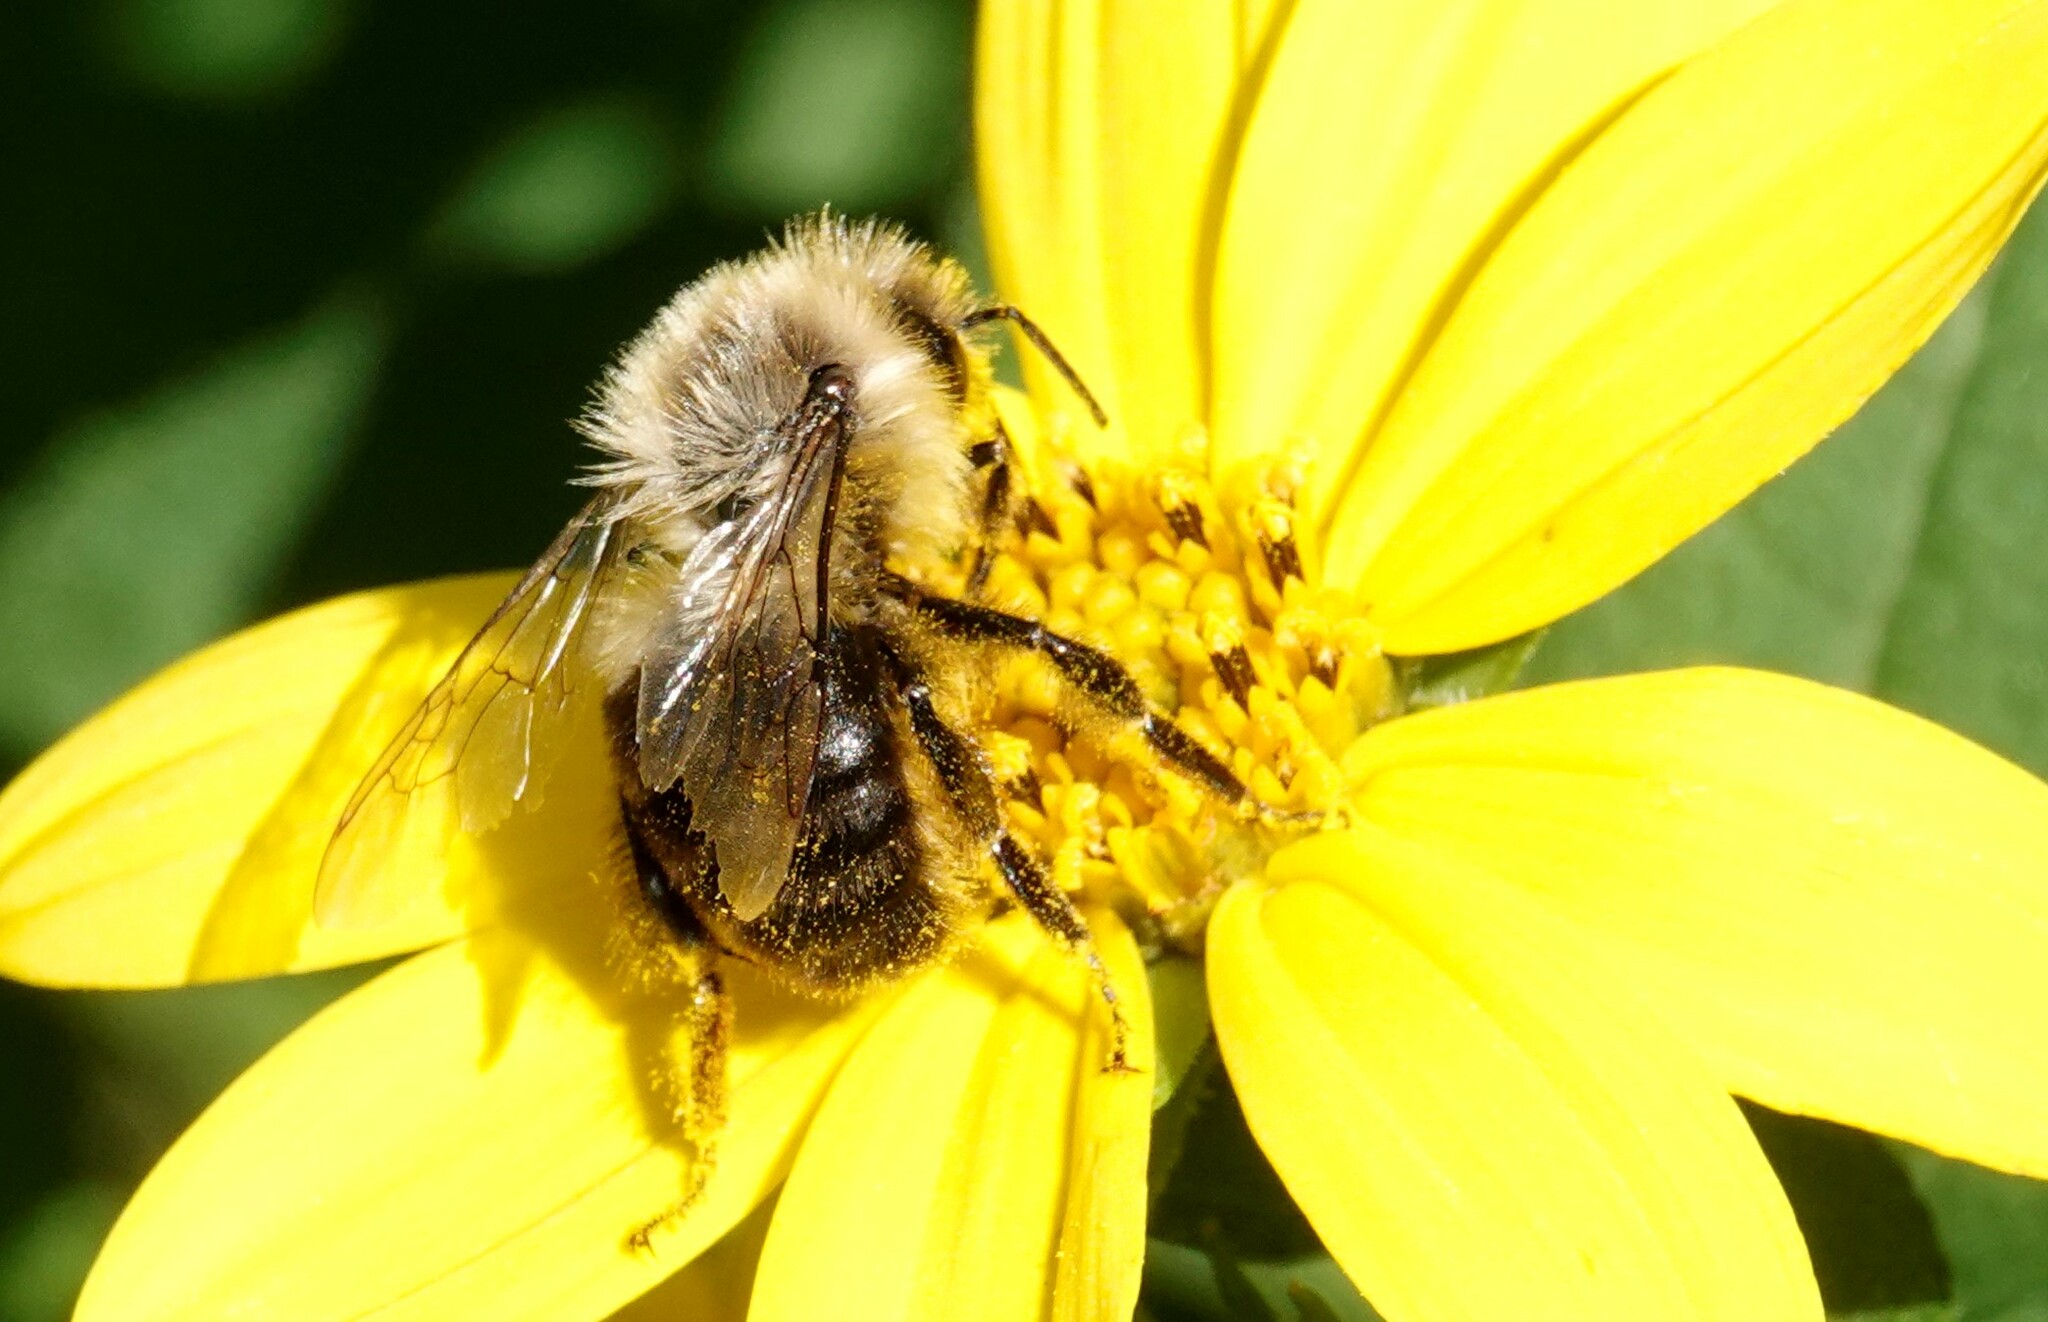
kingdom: Animalia
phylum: Arthropoda
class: Insecta
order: Hymenoptera
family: Apidae
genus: Bombus
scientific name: Bombus impatiens
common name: Common eastern bumble bee
